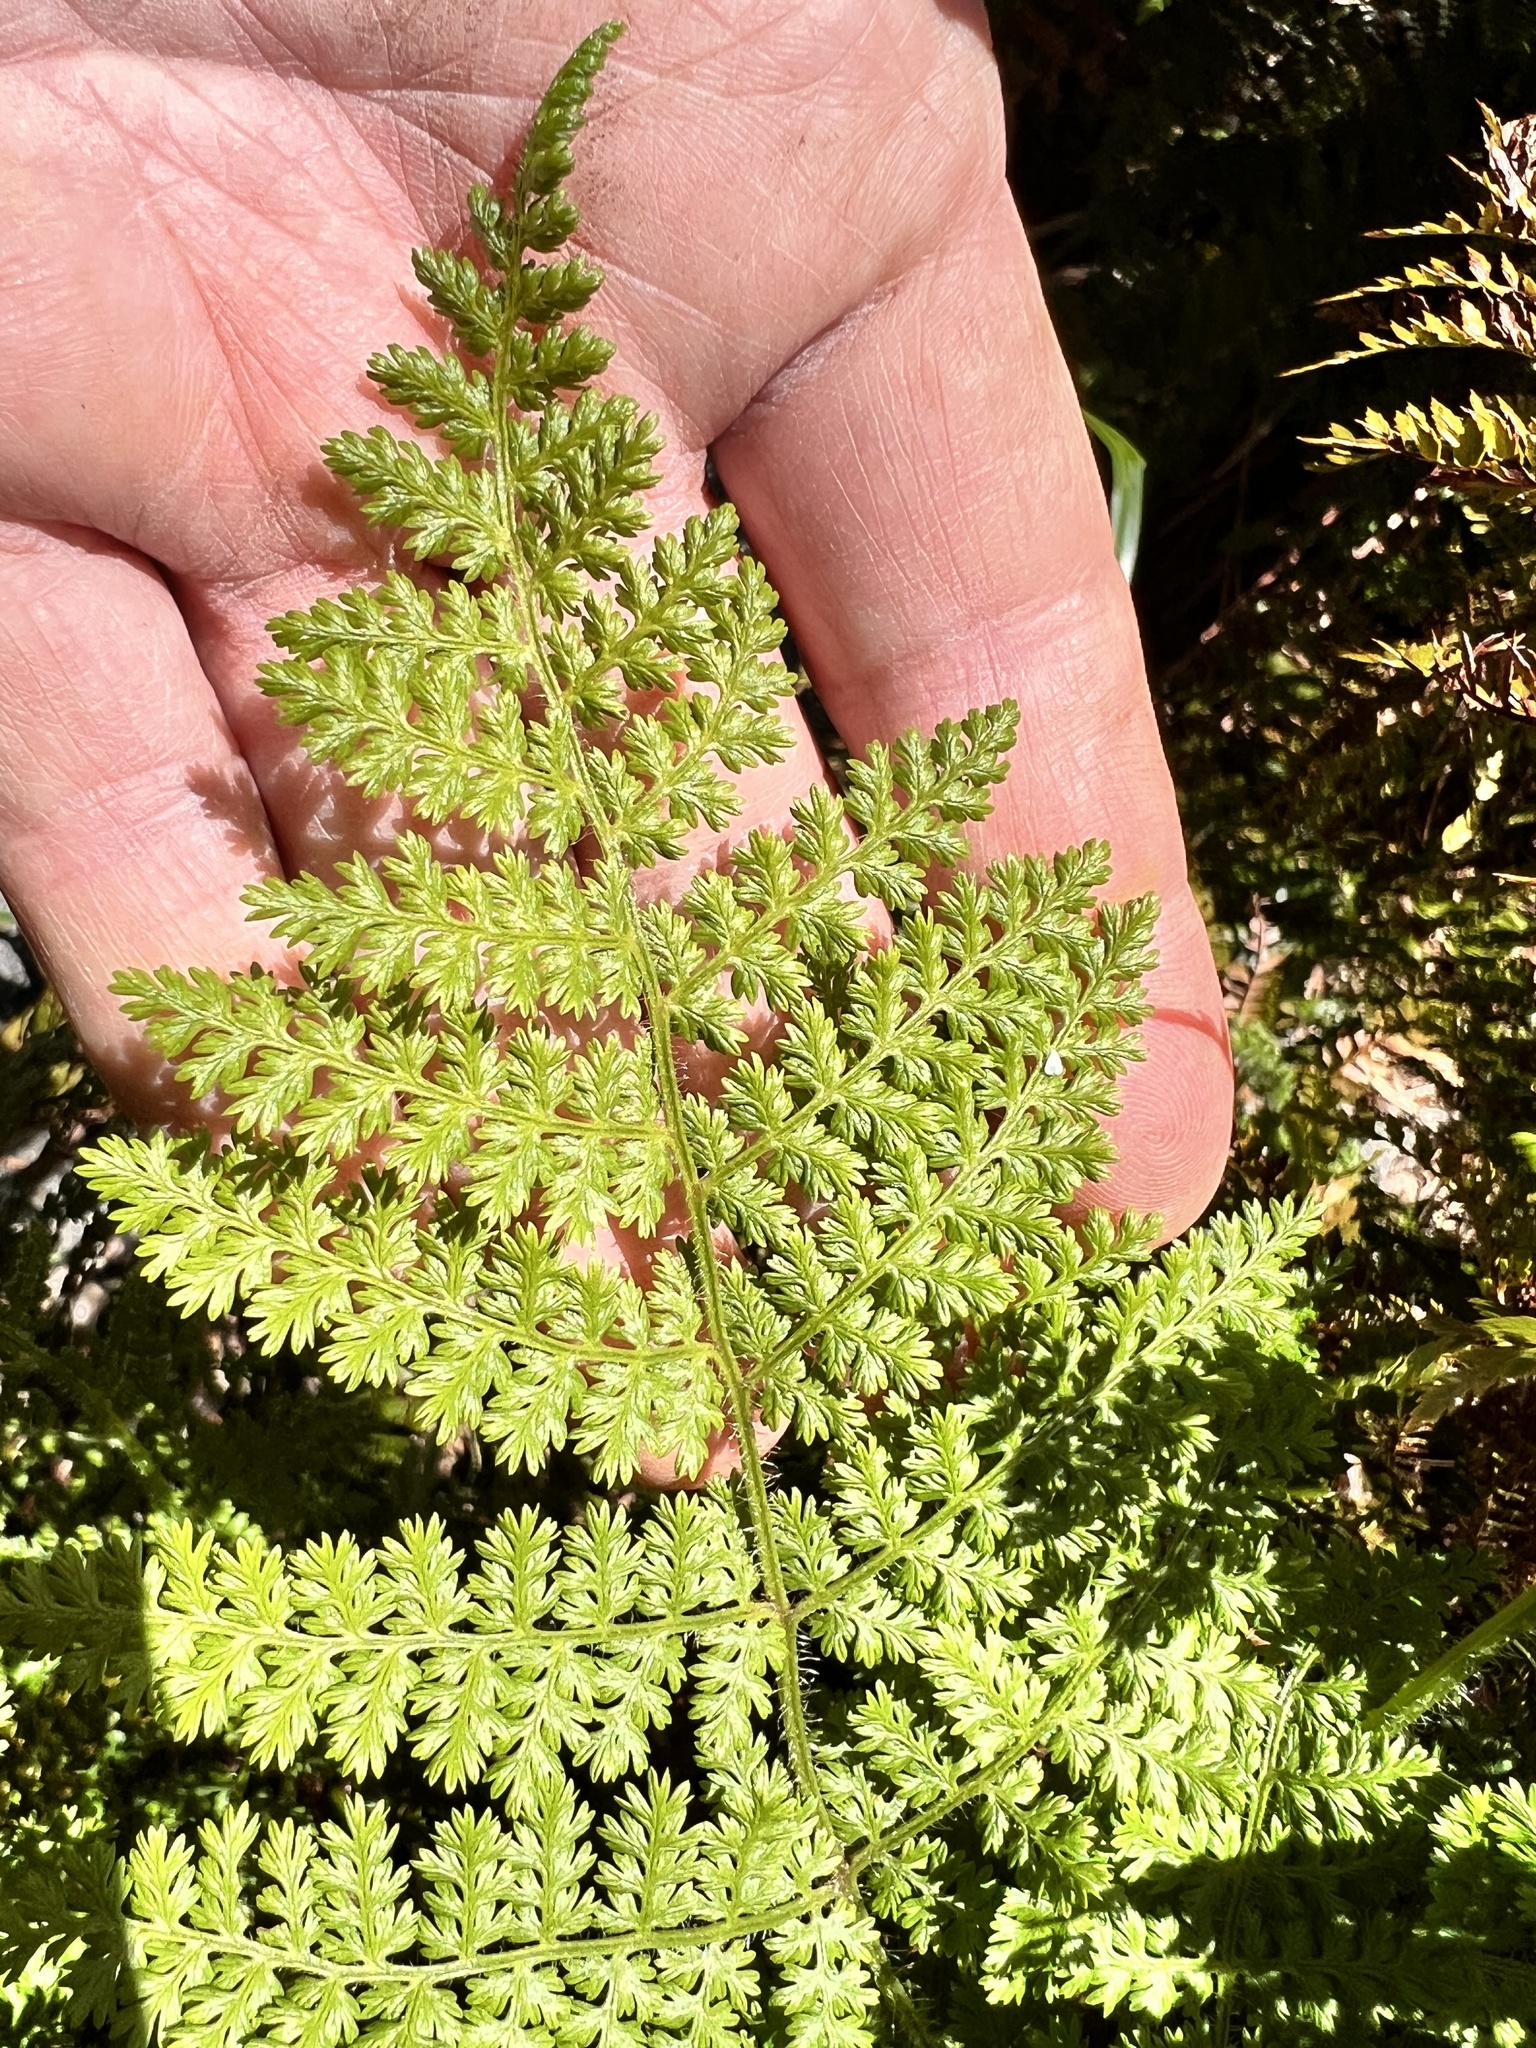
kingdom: Plantae
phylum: Tracheophyta
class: Polypodiopsida
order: Polypodiales
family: Dennstaedtiaceae
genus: Hypolepis
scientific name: Hypolepis millefolium
